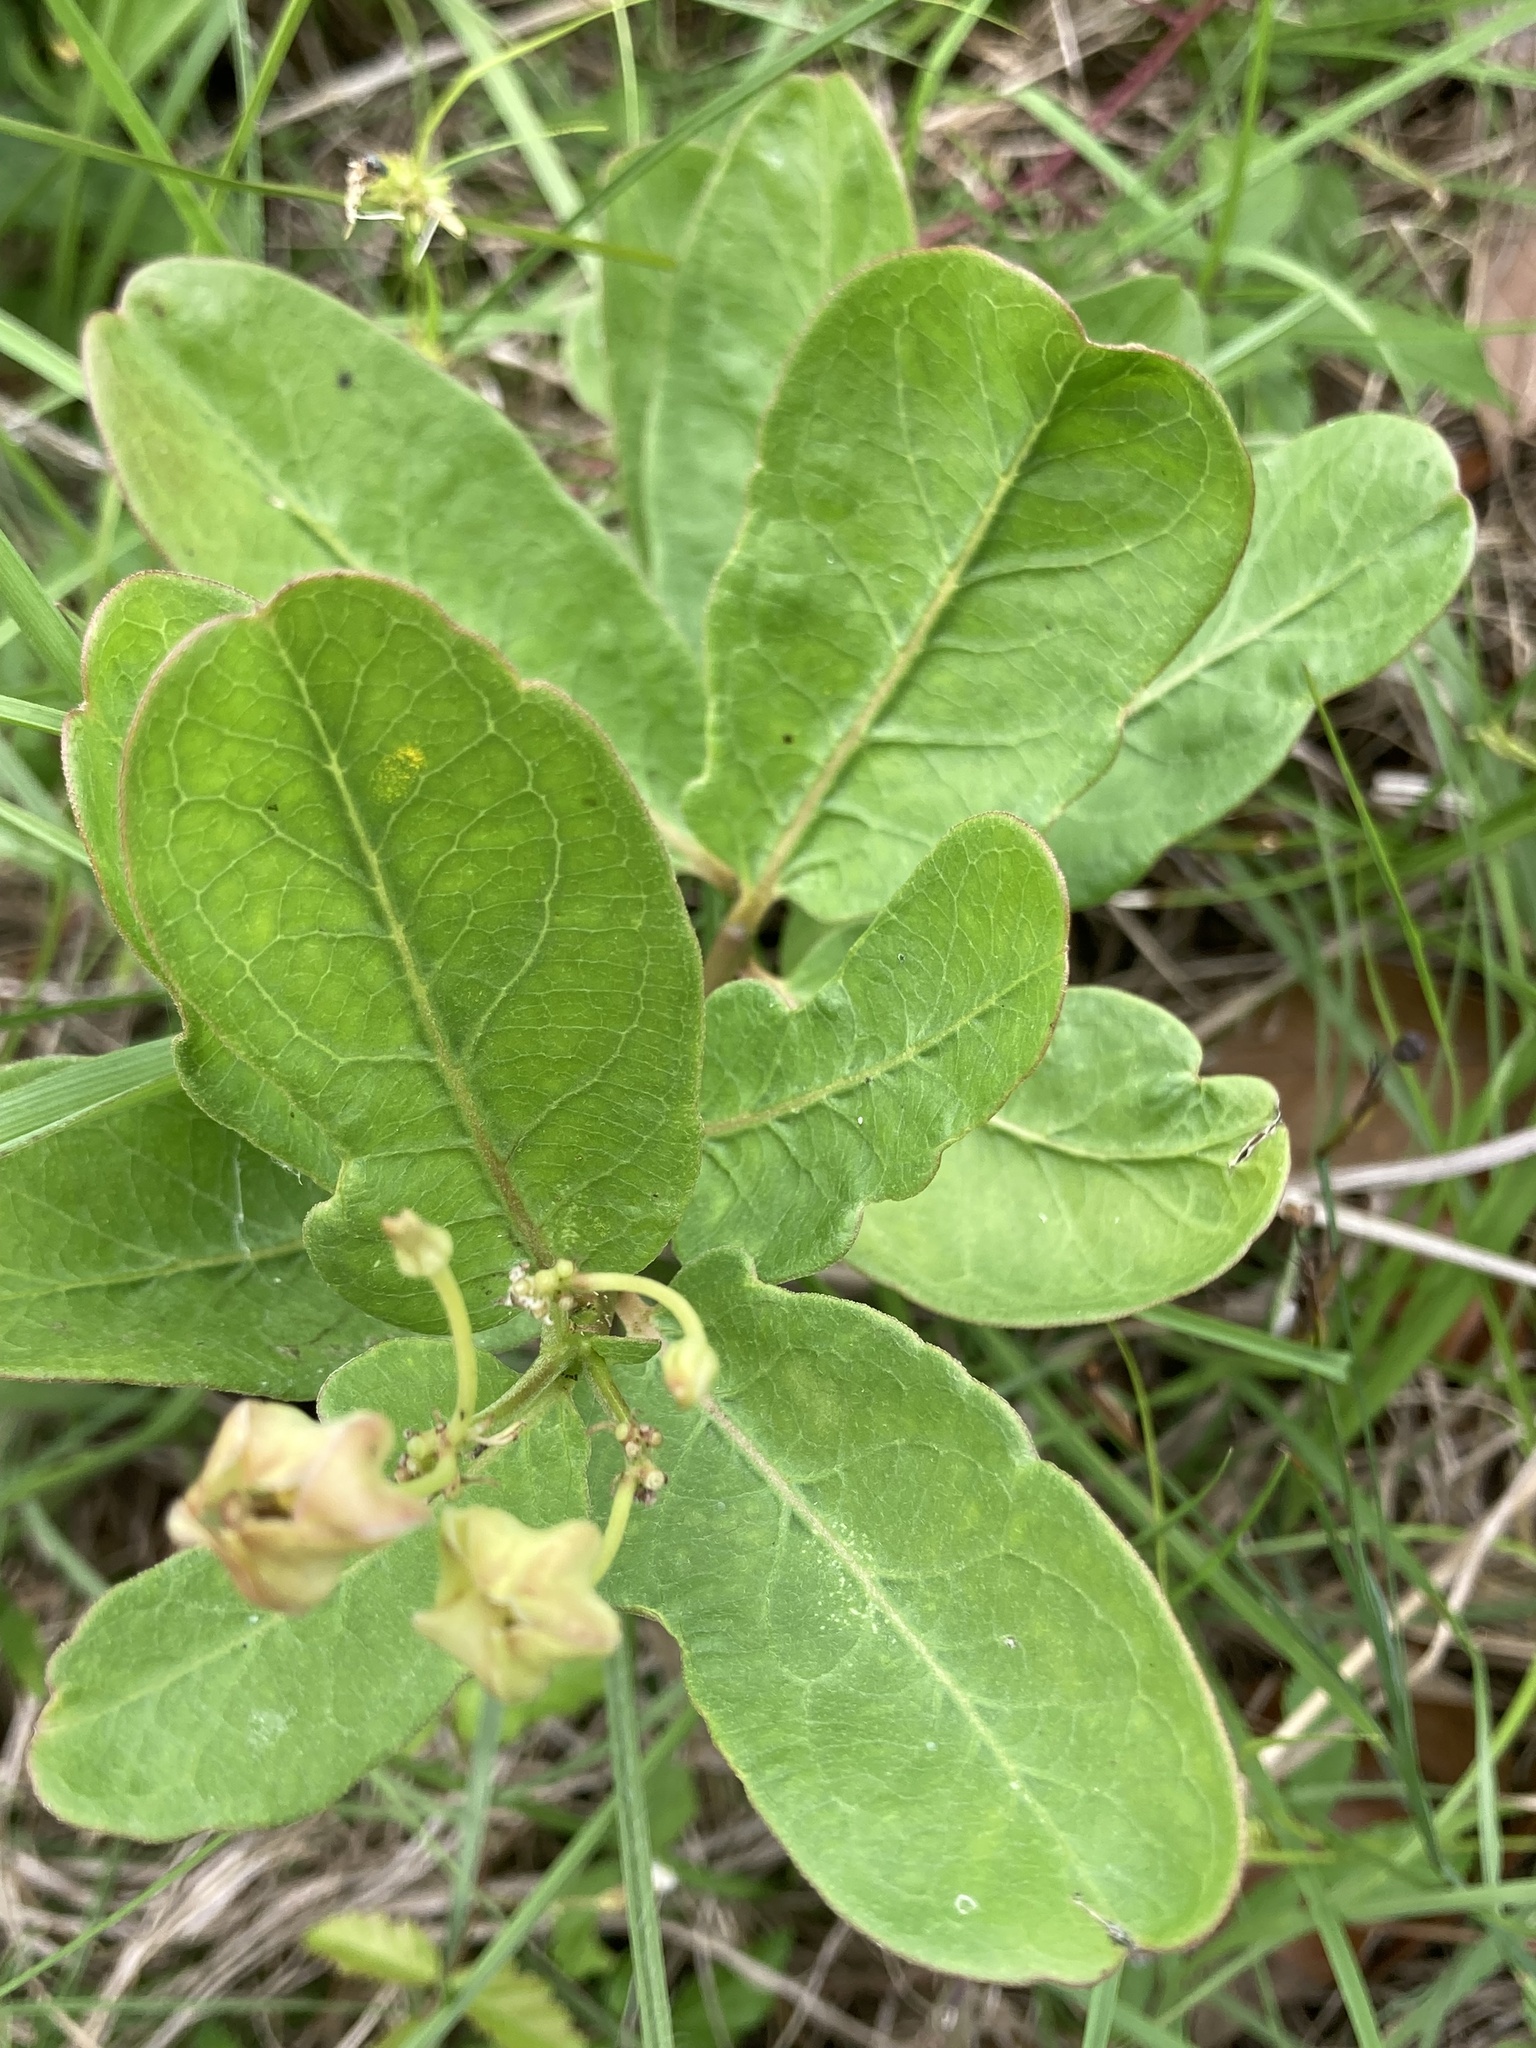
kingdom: Plantae
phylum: Tracheophyta
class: Magnoliopsida
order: Gentianales
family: Apocynaceae
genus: Asclepias
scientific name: Asclepias viridis
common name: Antelope-horns
